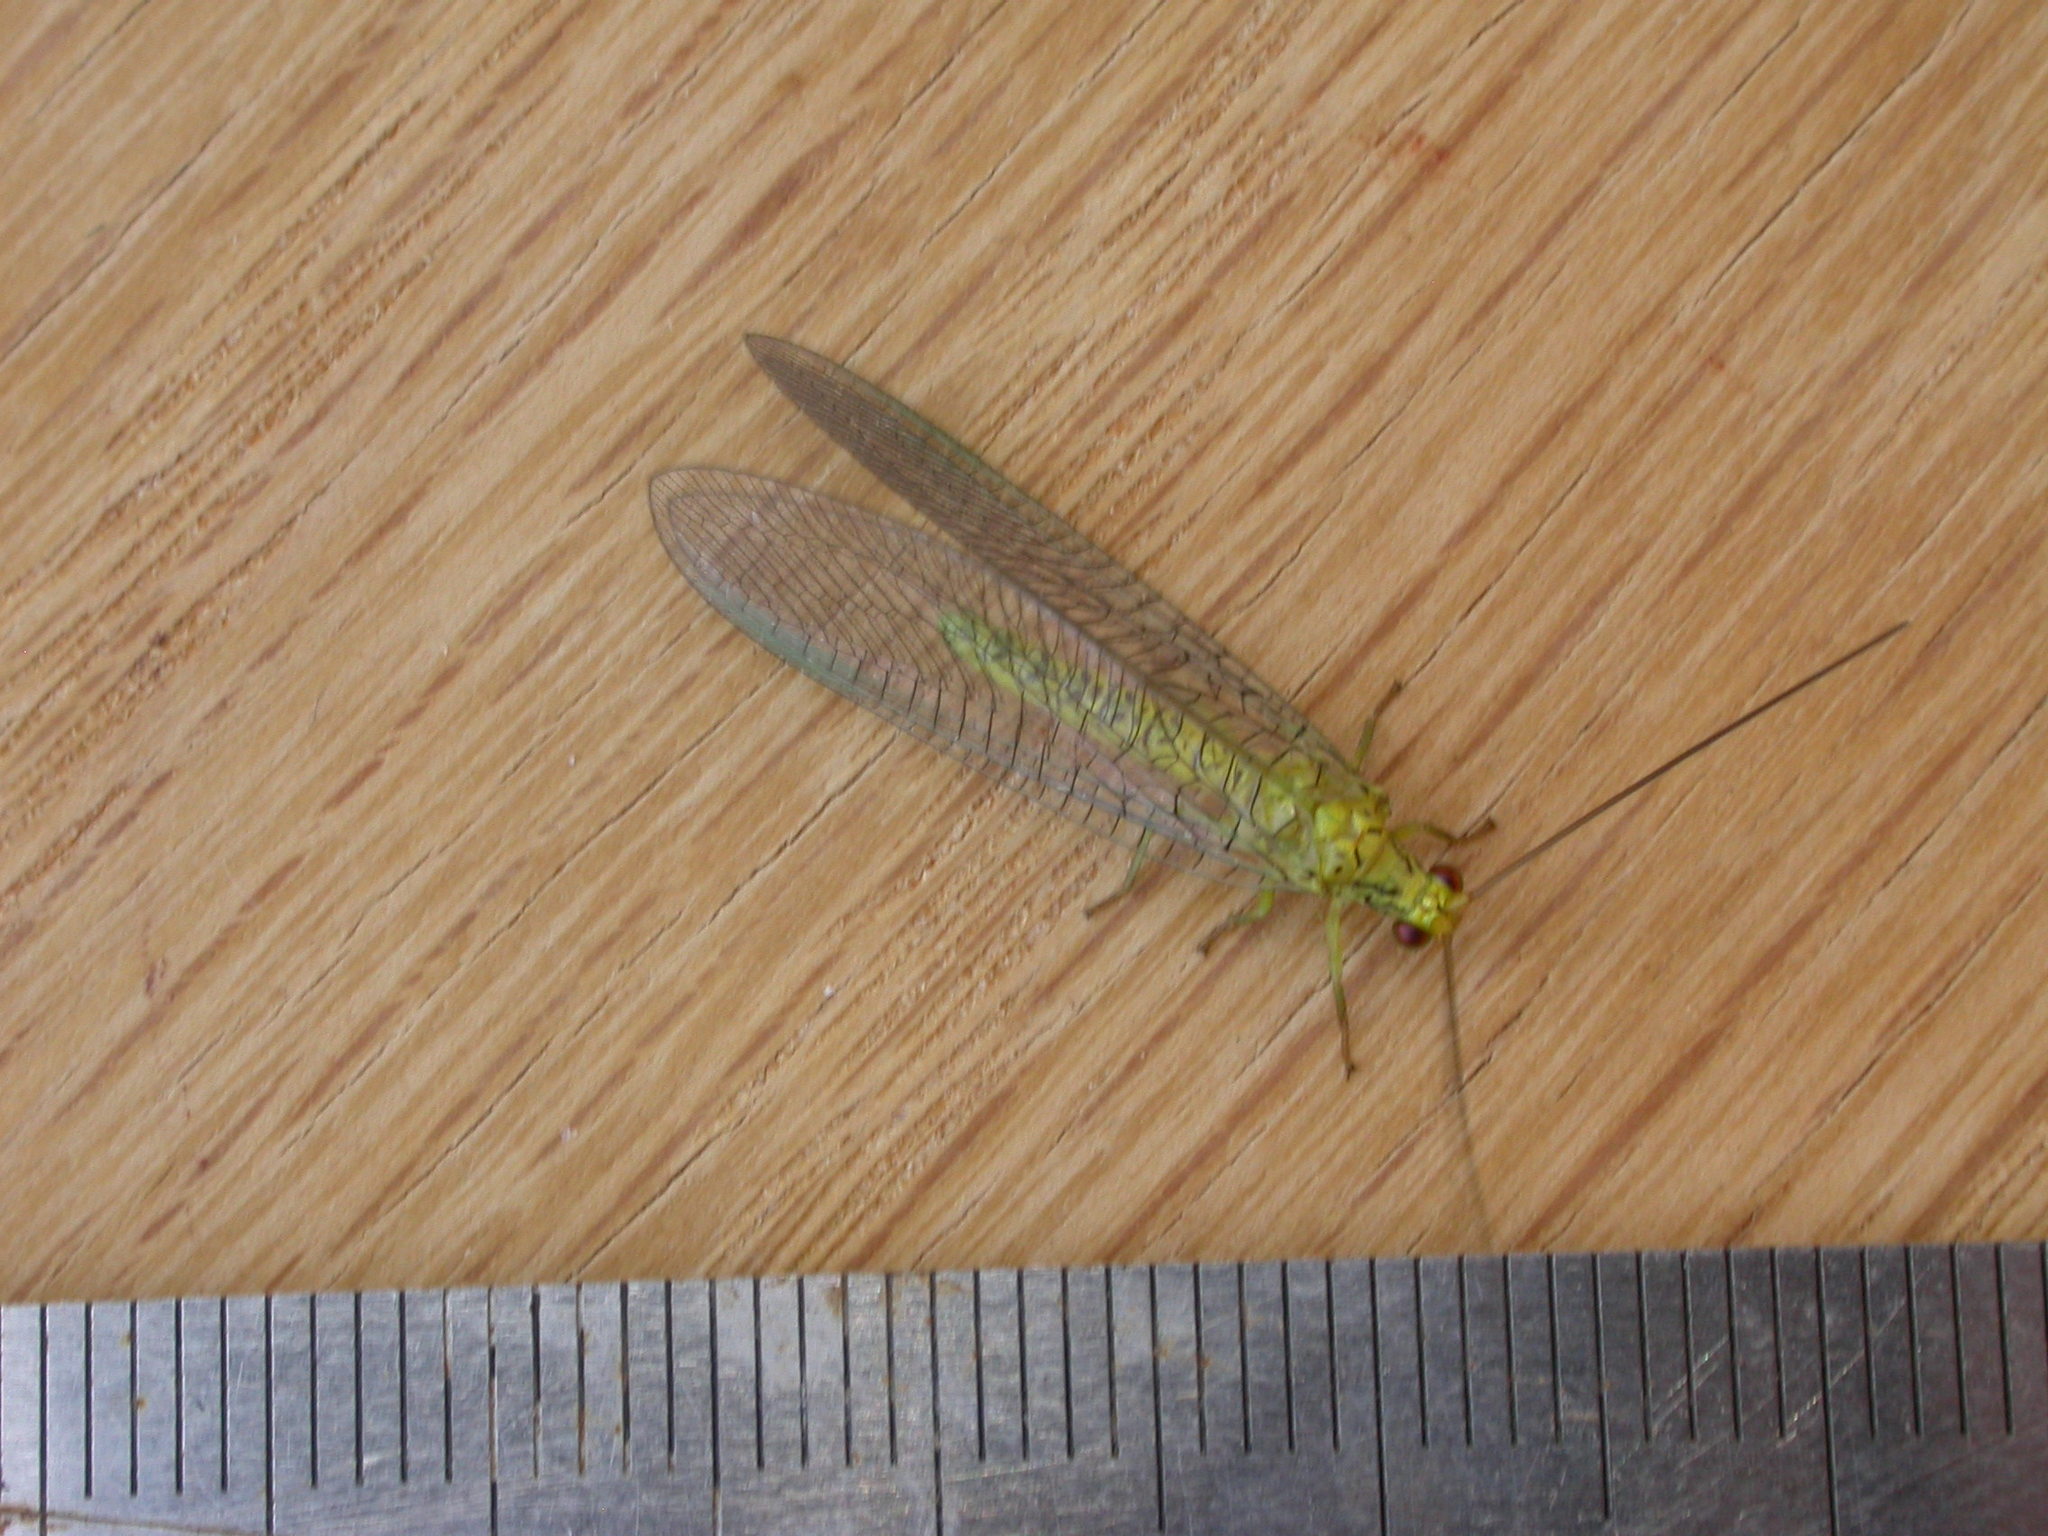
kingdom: Animalia
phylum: Arthropoda
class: Insecta
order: Neuroptera
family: Chrysopidae
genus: Calochrysa
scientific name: Calochrysa extranea
